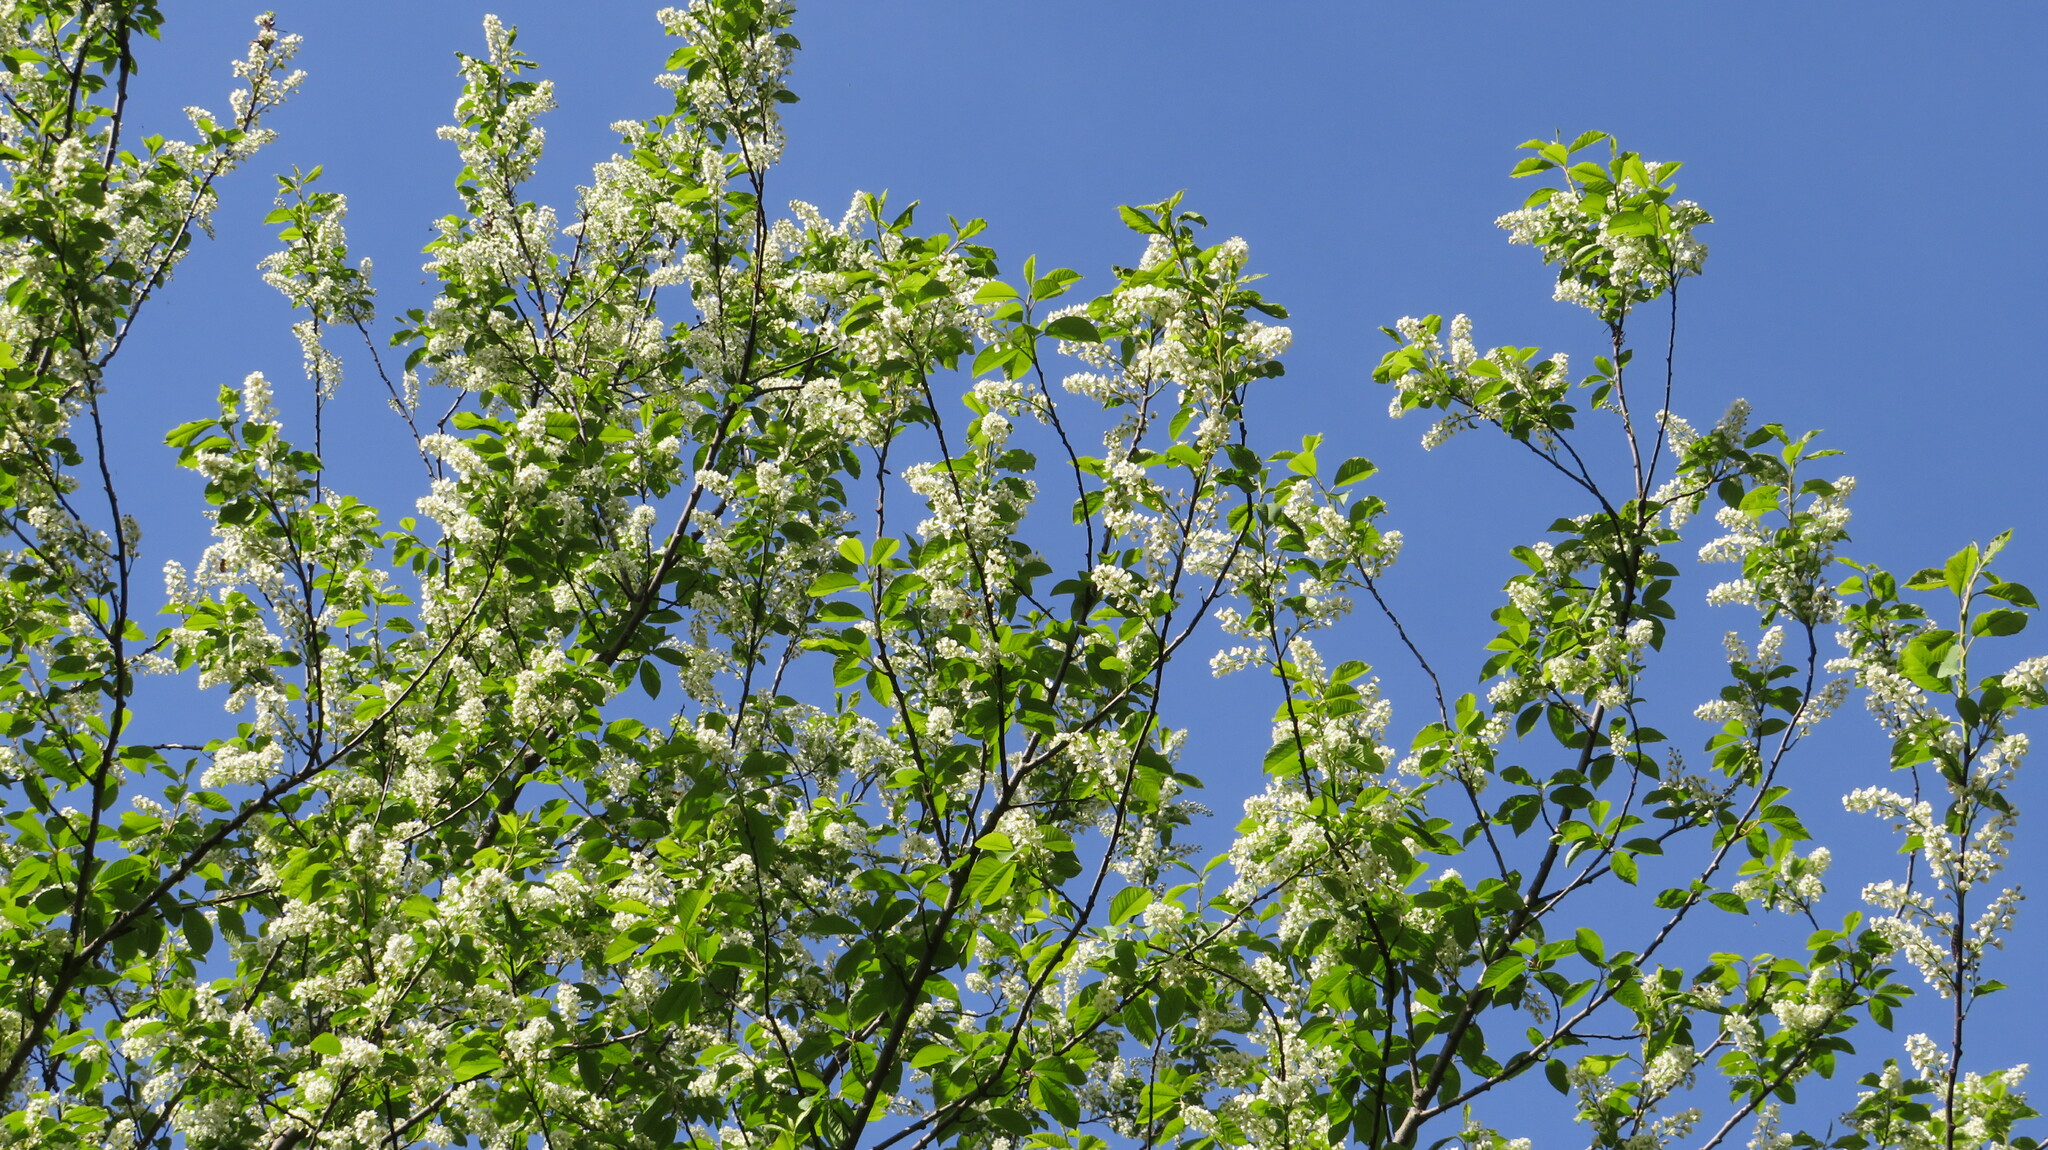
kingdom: Plantae
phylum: Tracheophyta
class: Magnoliopsida
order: Rosales
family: Rosaceae
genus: Prunus
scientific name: Prunus padus
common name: Bird cherry
